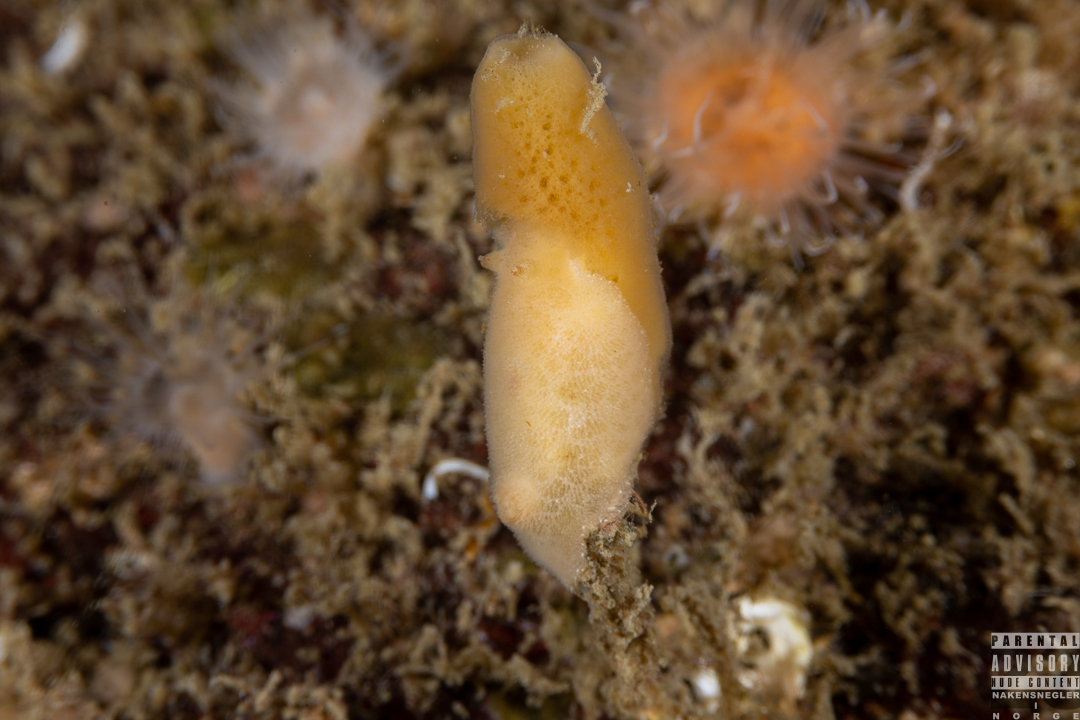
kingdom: Animalia
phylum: Mollusca
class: Gastropoda
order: Nudibranchia
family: Discodorididae
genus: Jorunna
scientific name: Jorunna tomentosa
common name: Grey sea slug
